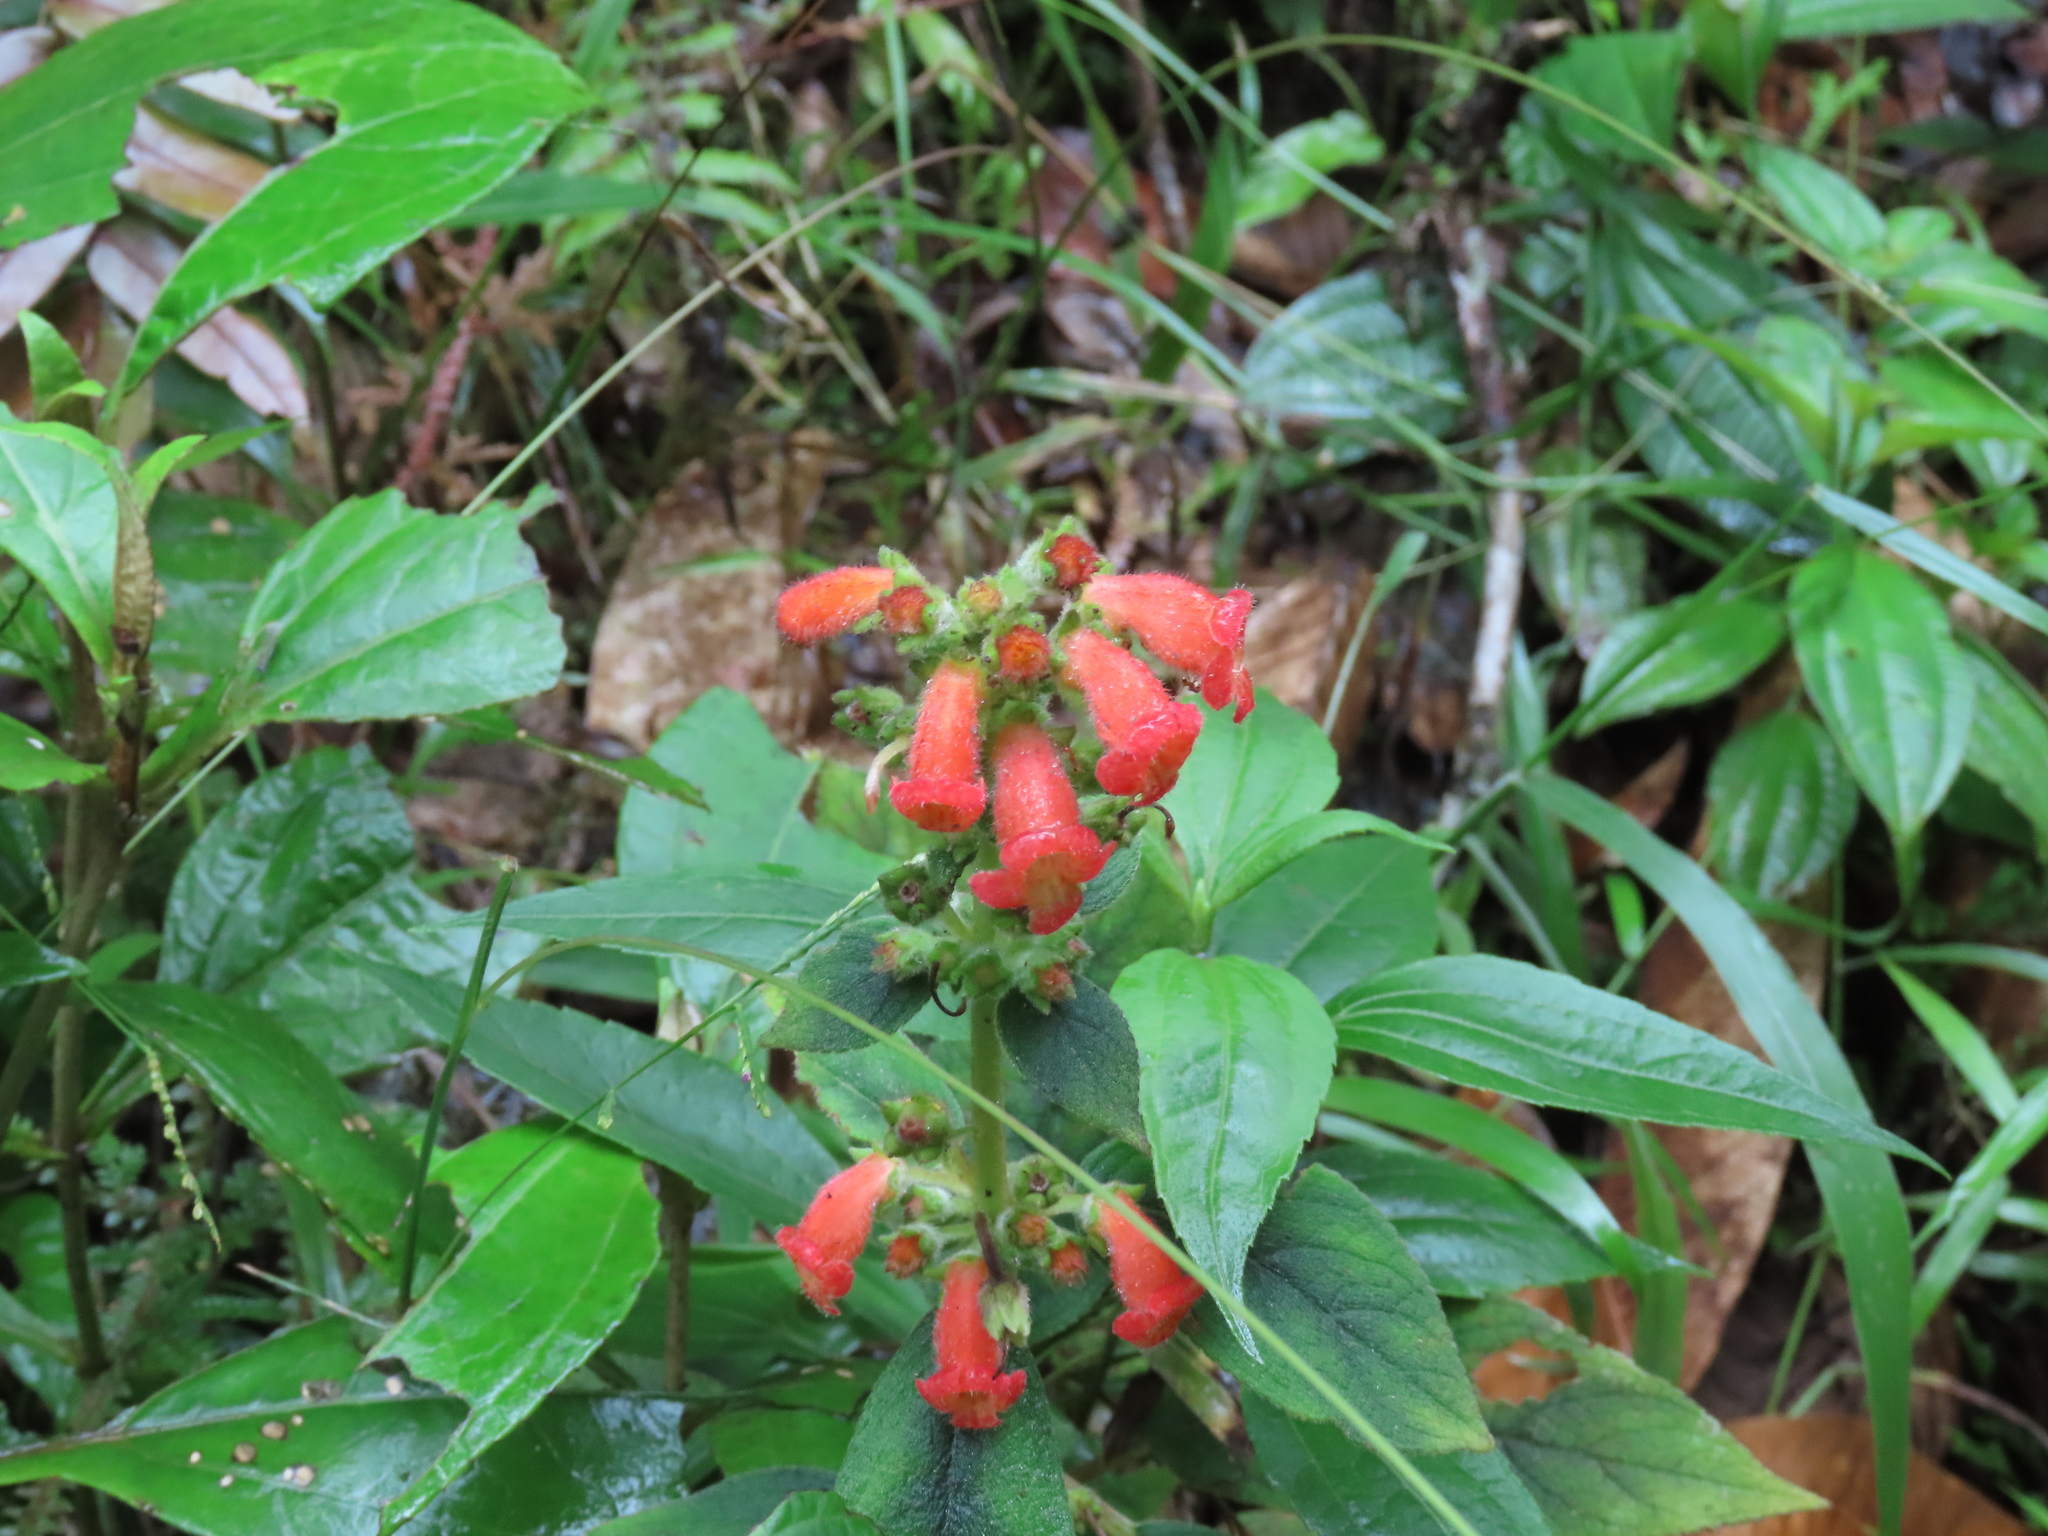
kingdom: Plantae
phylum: Tracheophyta
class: Magnoliopsida
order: Lamiales
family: Gesneriaceae
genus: Kohleria
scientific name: Kohleria spicata
